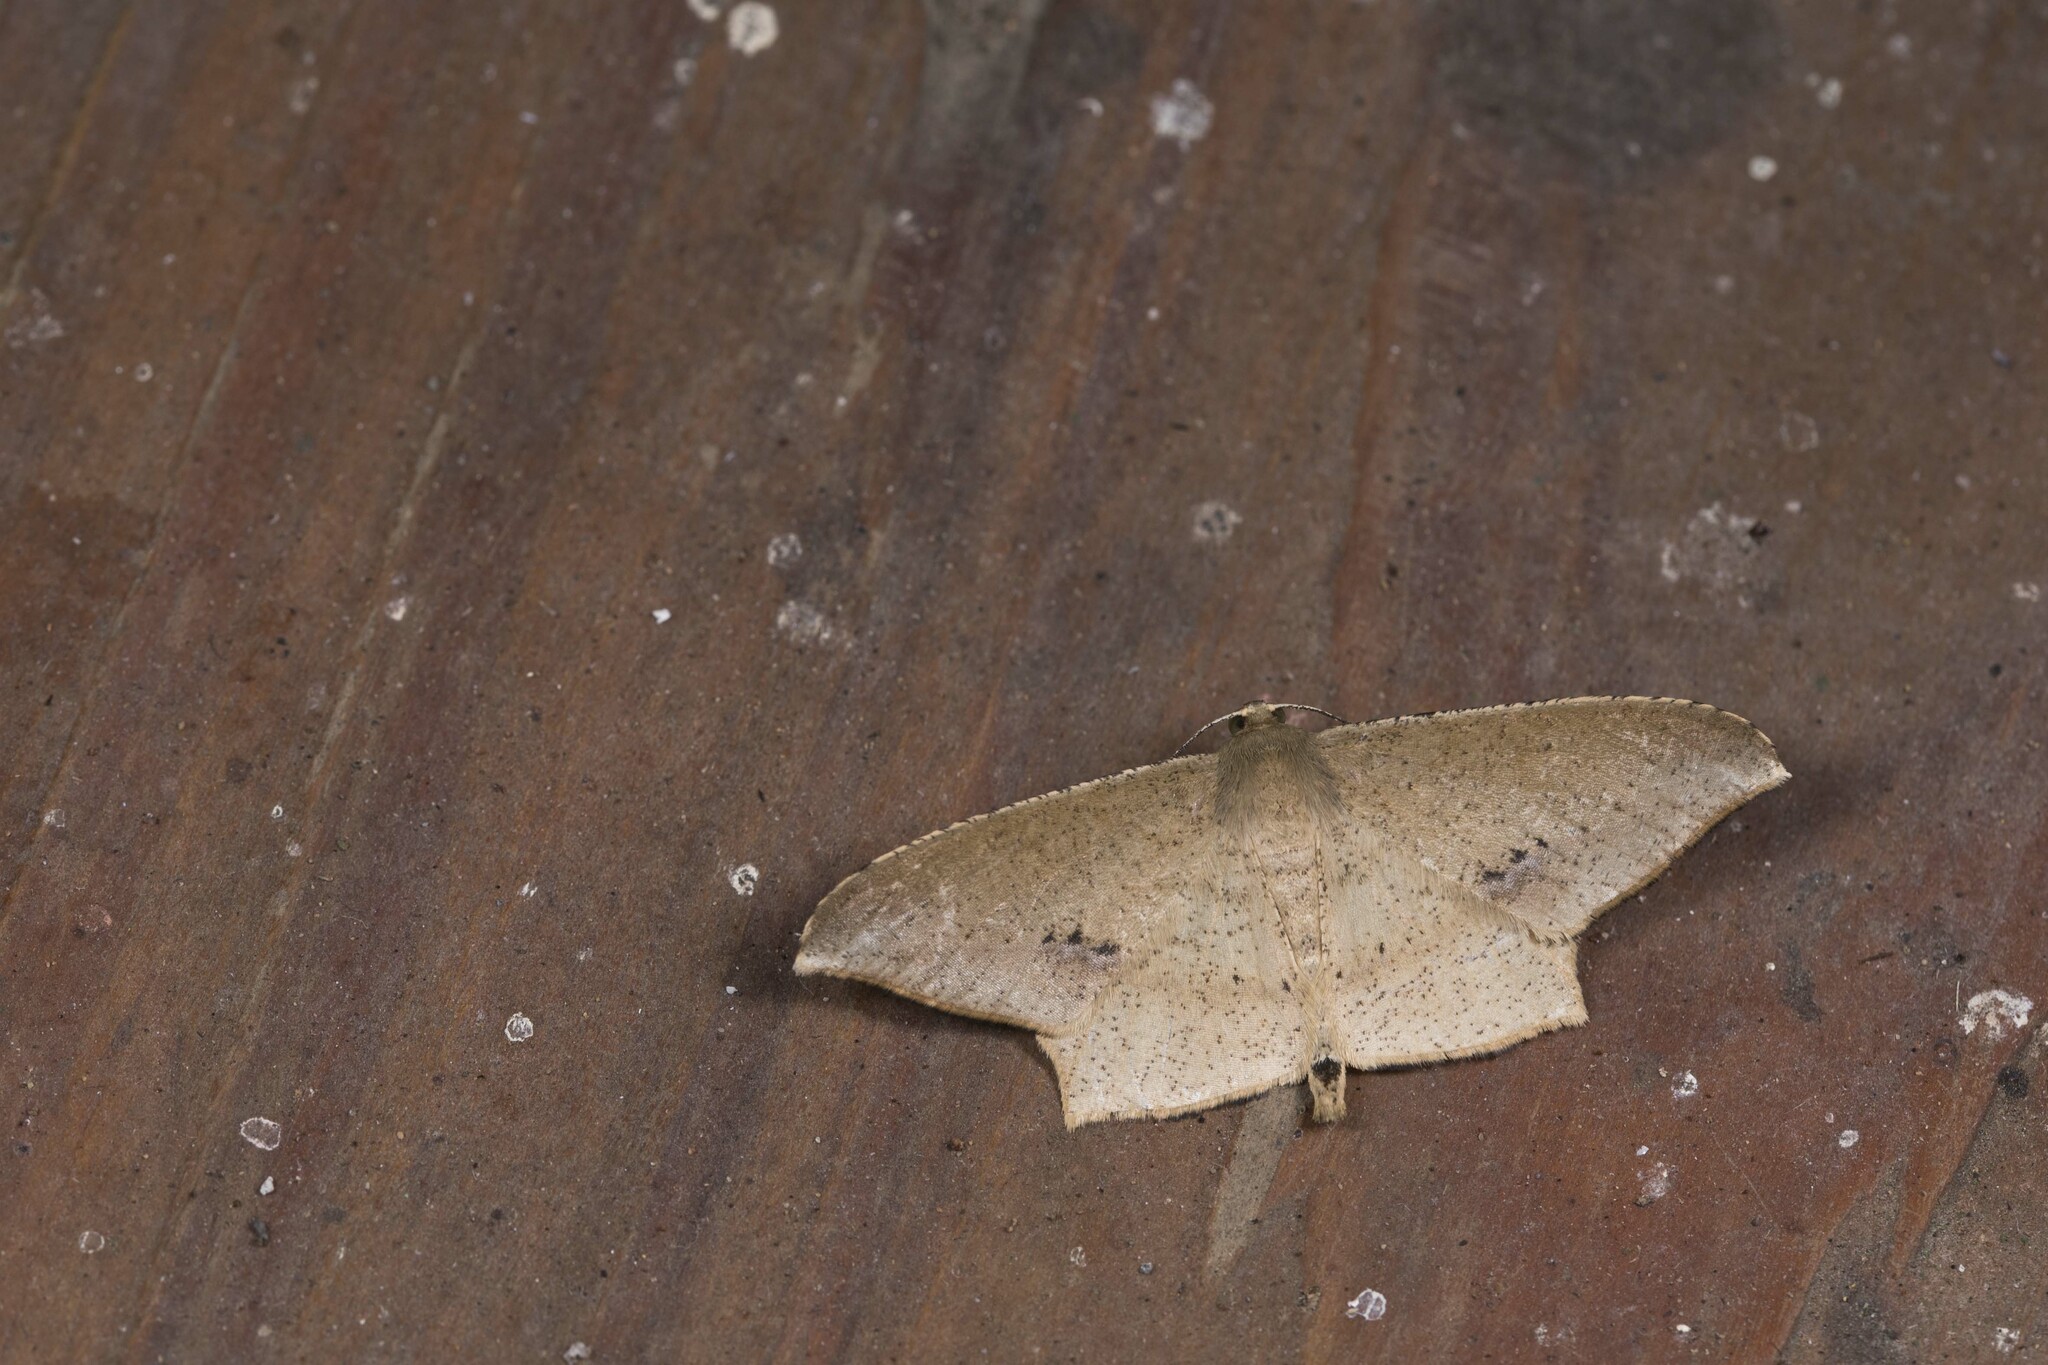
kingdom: Animalia
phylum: Arthropoda
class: Insecta
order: Lepidoptera
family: Geometridae
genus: Krananda
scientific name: Krananda falcata
